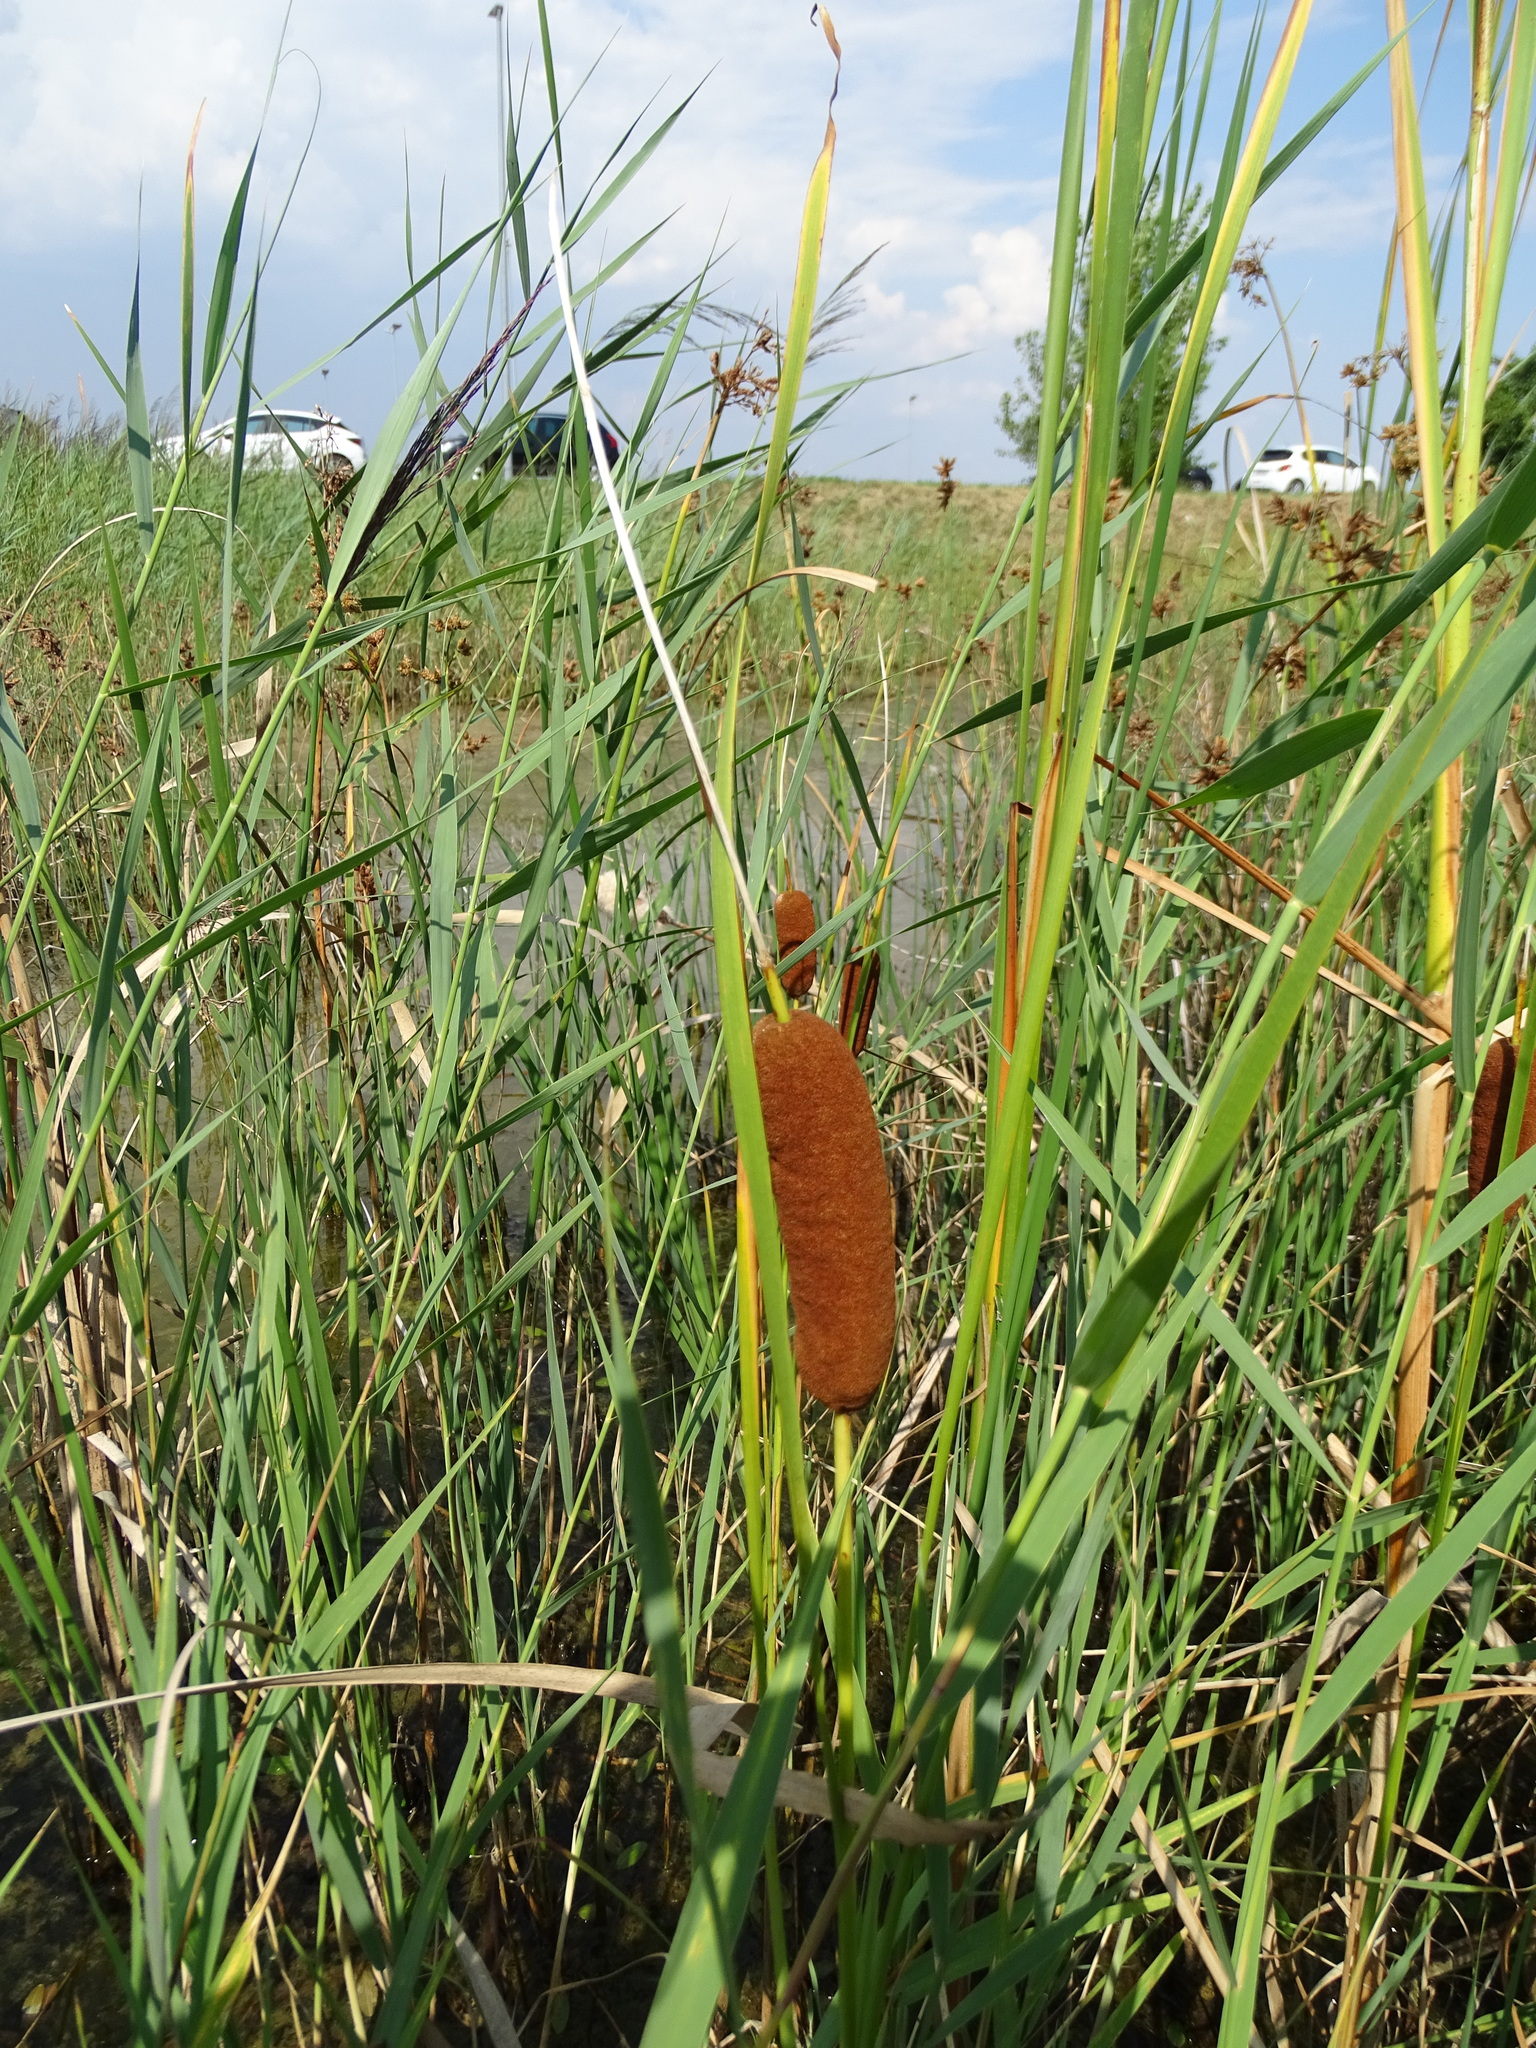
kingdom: Plantae
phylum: Tracheophyta
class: Liliopsida
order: Poales
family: Typhaceae
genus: Typha
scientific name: Typha laxmannii
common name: Laxman’s bulrush
